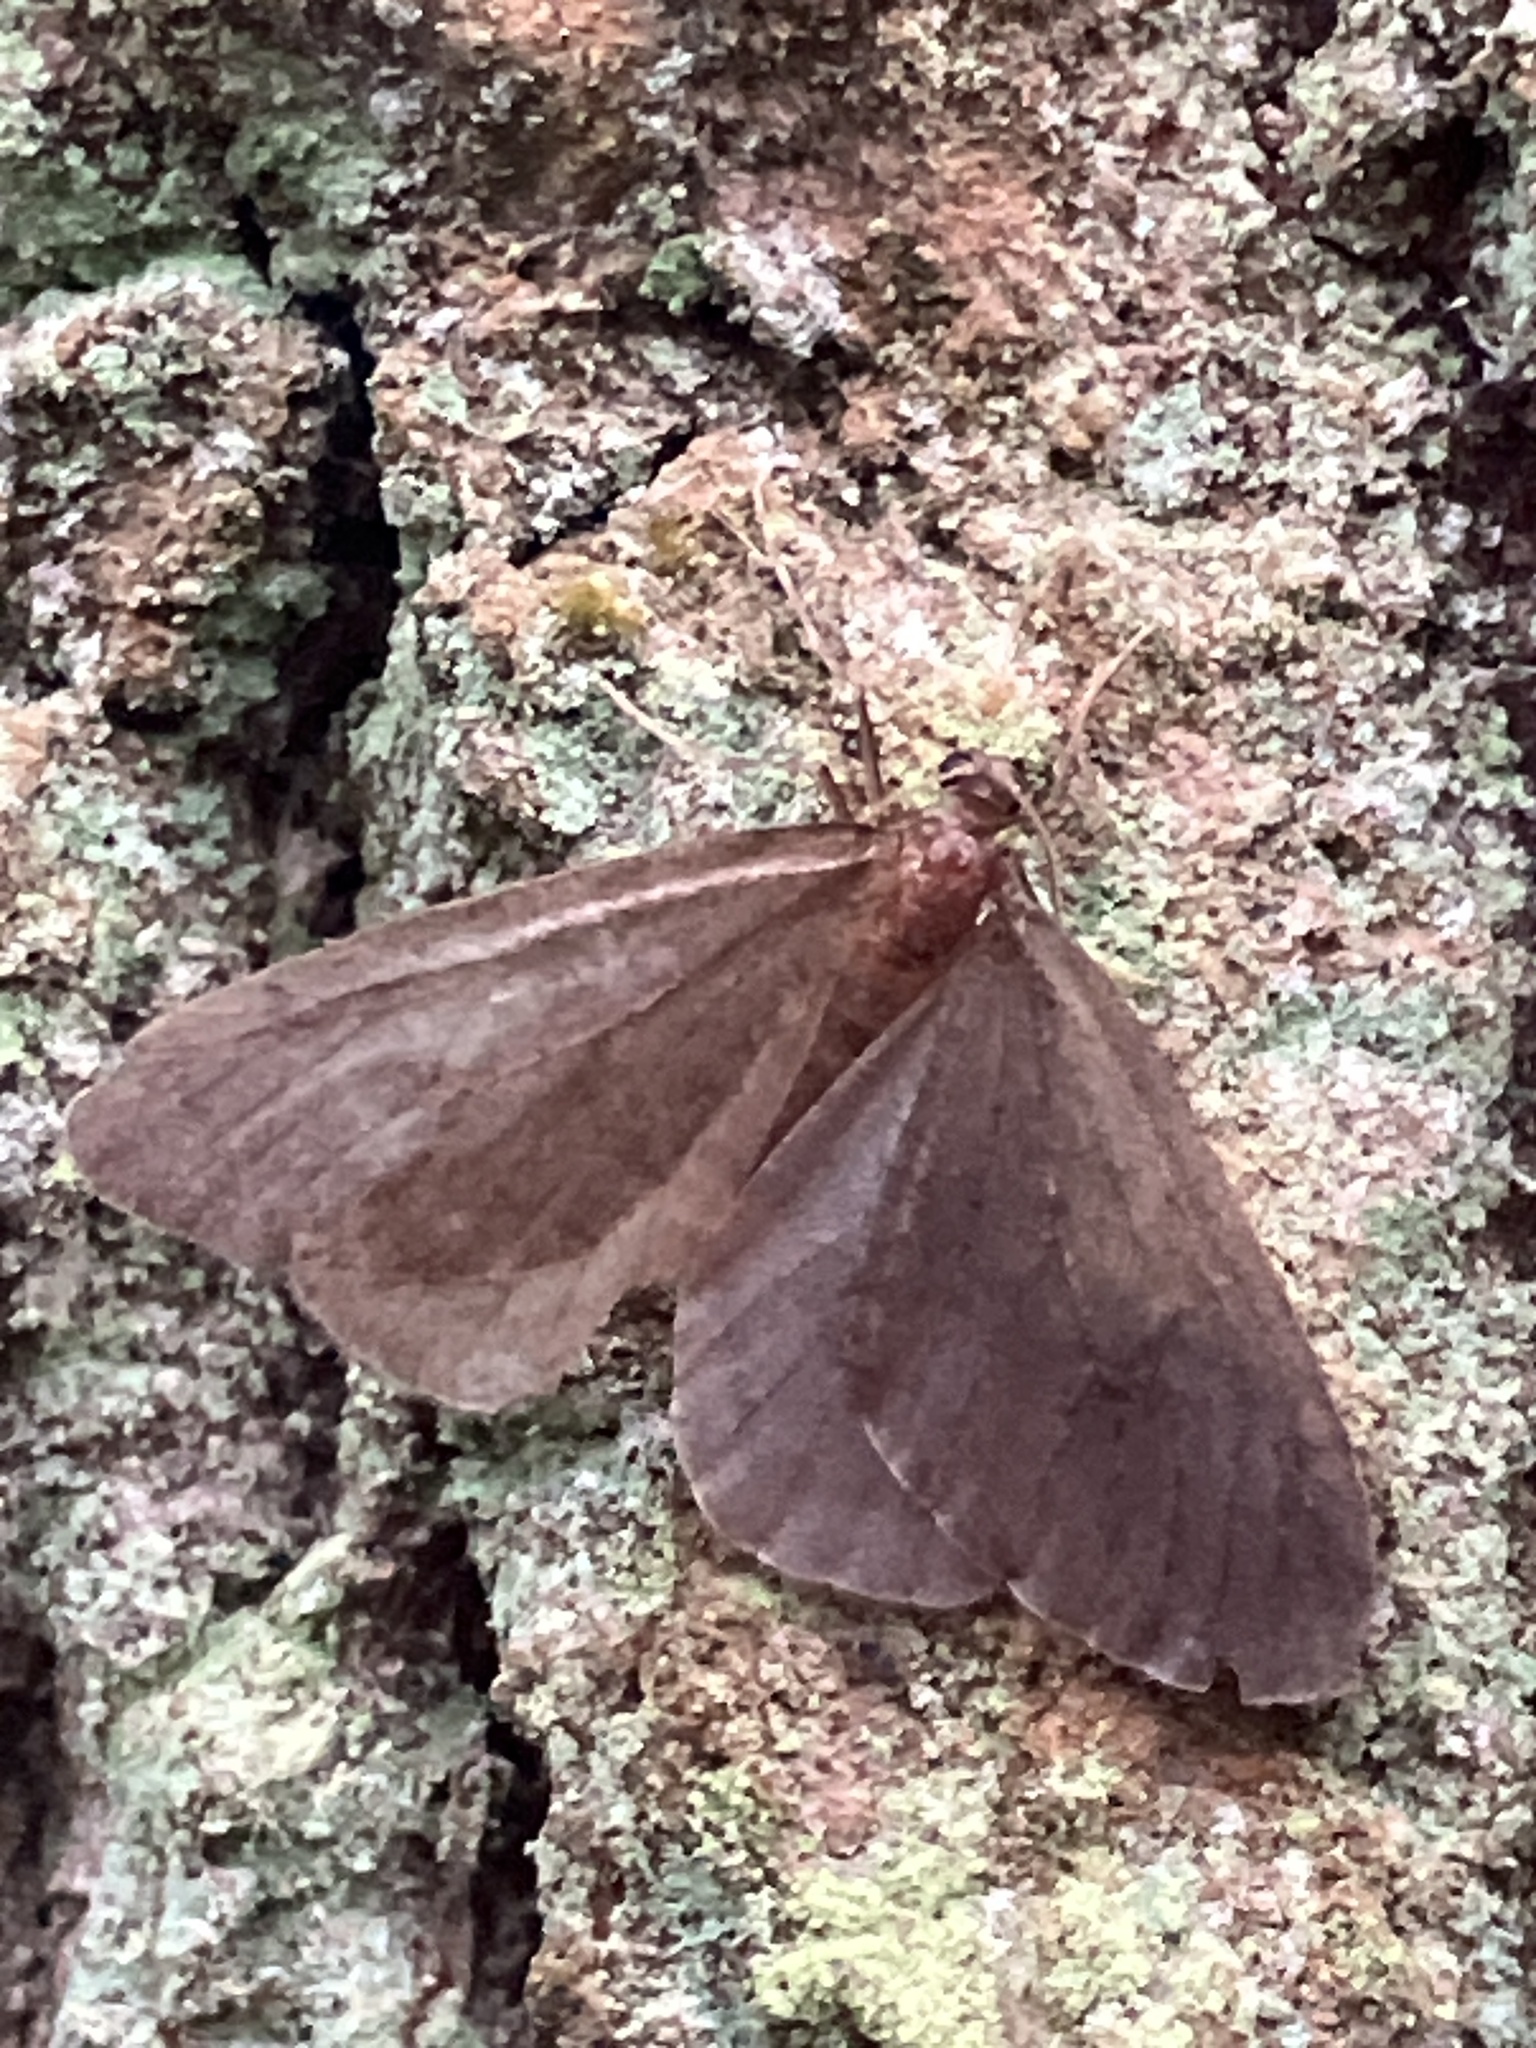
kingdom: Animalia
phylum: Arthropoda
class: Insecta
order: Lepidoptera
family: Geometridae
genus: Operophtera
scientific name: Operophtera brumata
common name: Winter moth
